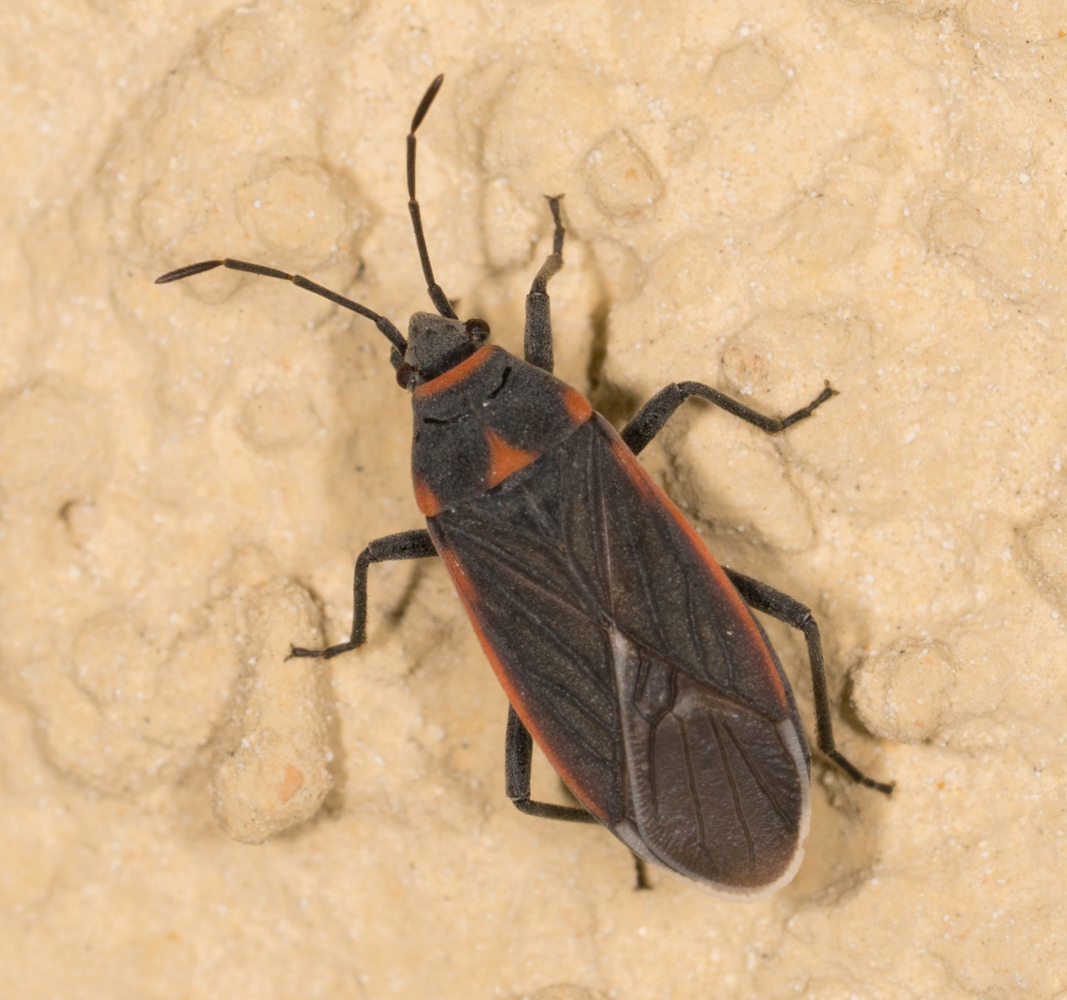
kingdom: Animalia
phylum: Arthropoda
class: Insecta
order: Hemiptera
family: Lygaeidae
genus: Melacoryphus
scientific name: Melacoryphus lateralis
